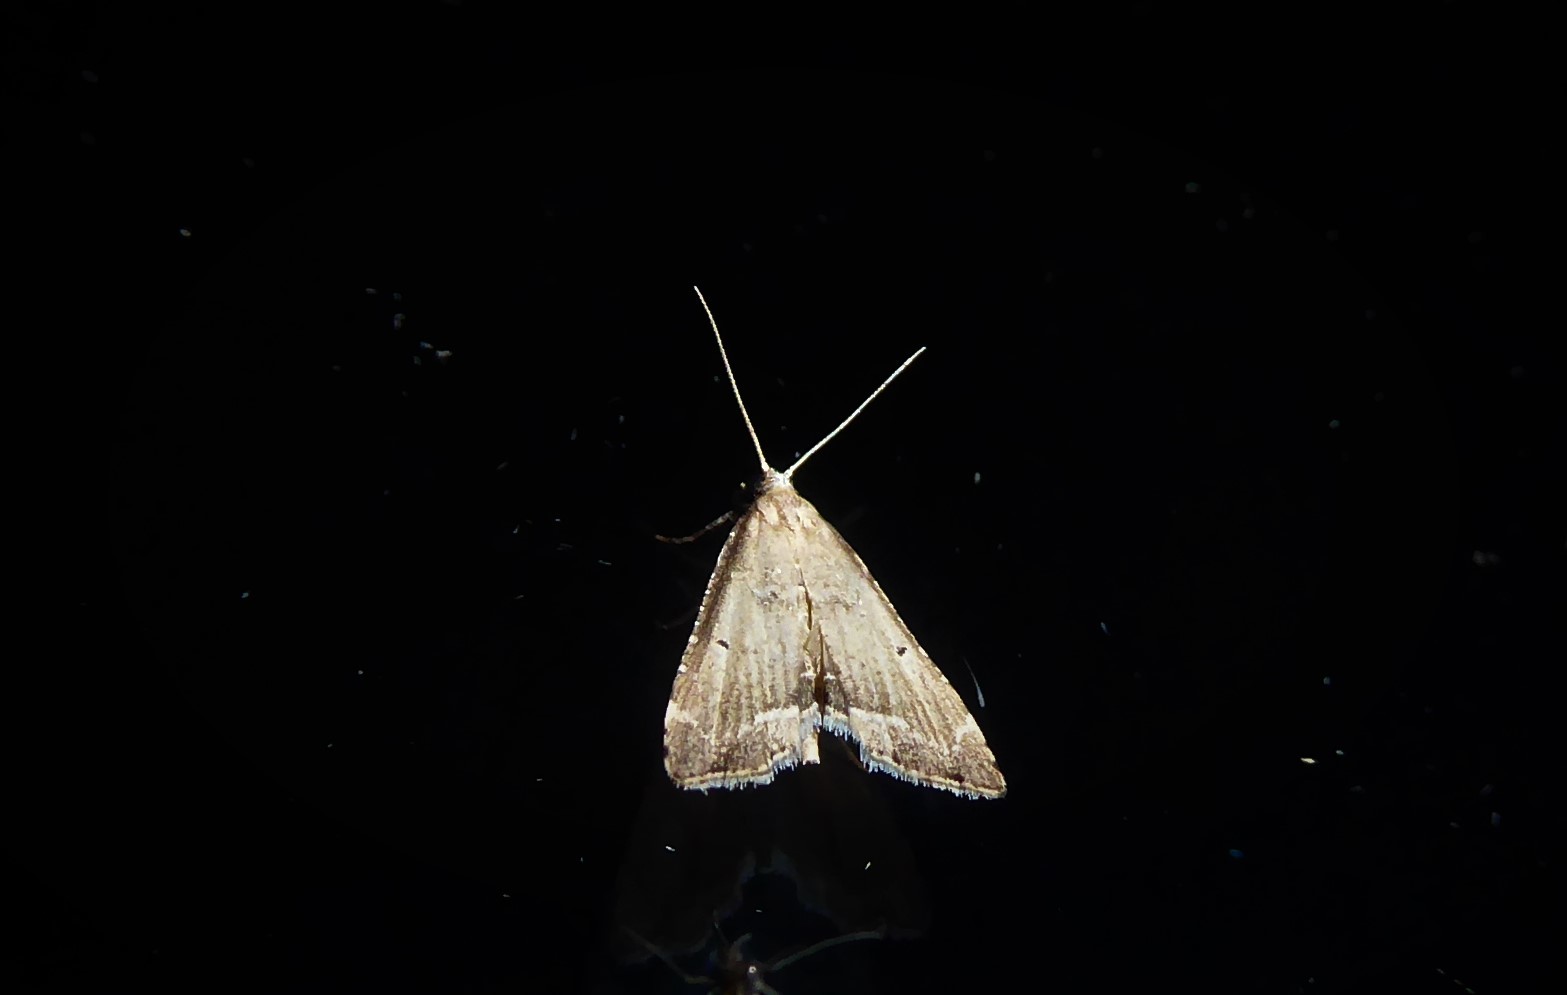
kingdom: Animalia
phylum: Arthropoda
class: Insecta
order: Lepidoptera
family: Crambidae
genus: Diplopseustis
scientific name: Diplopseustis perieresalis
